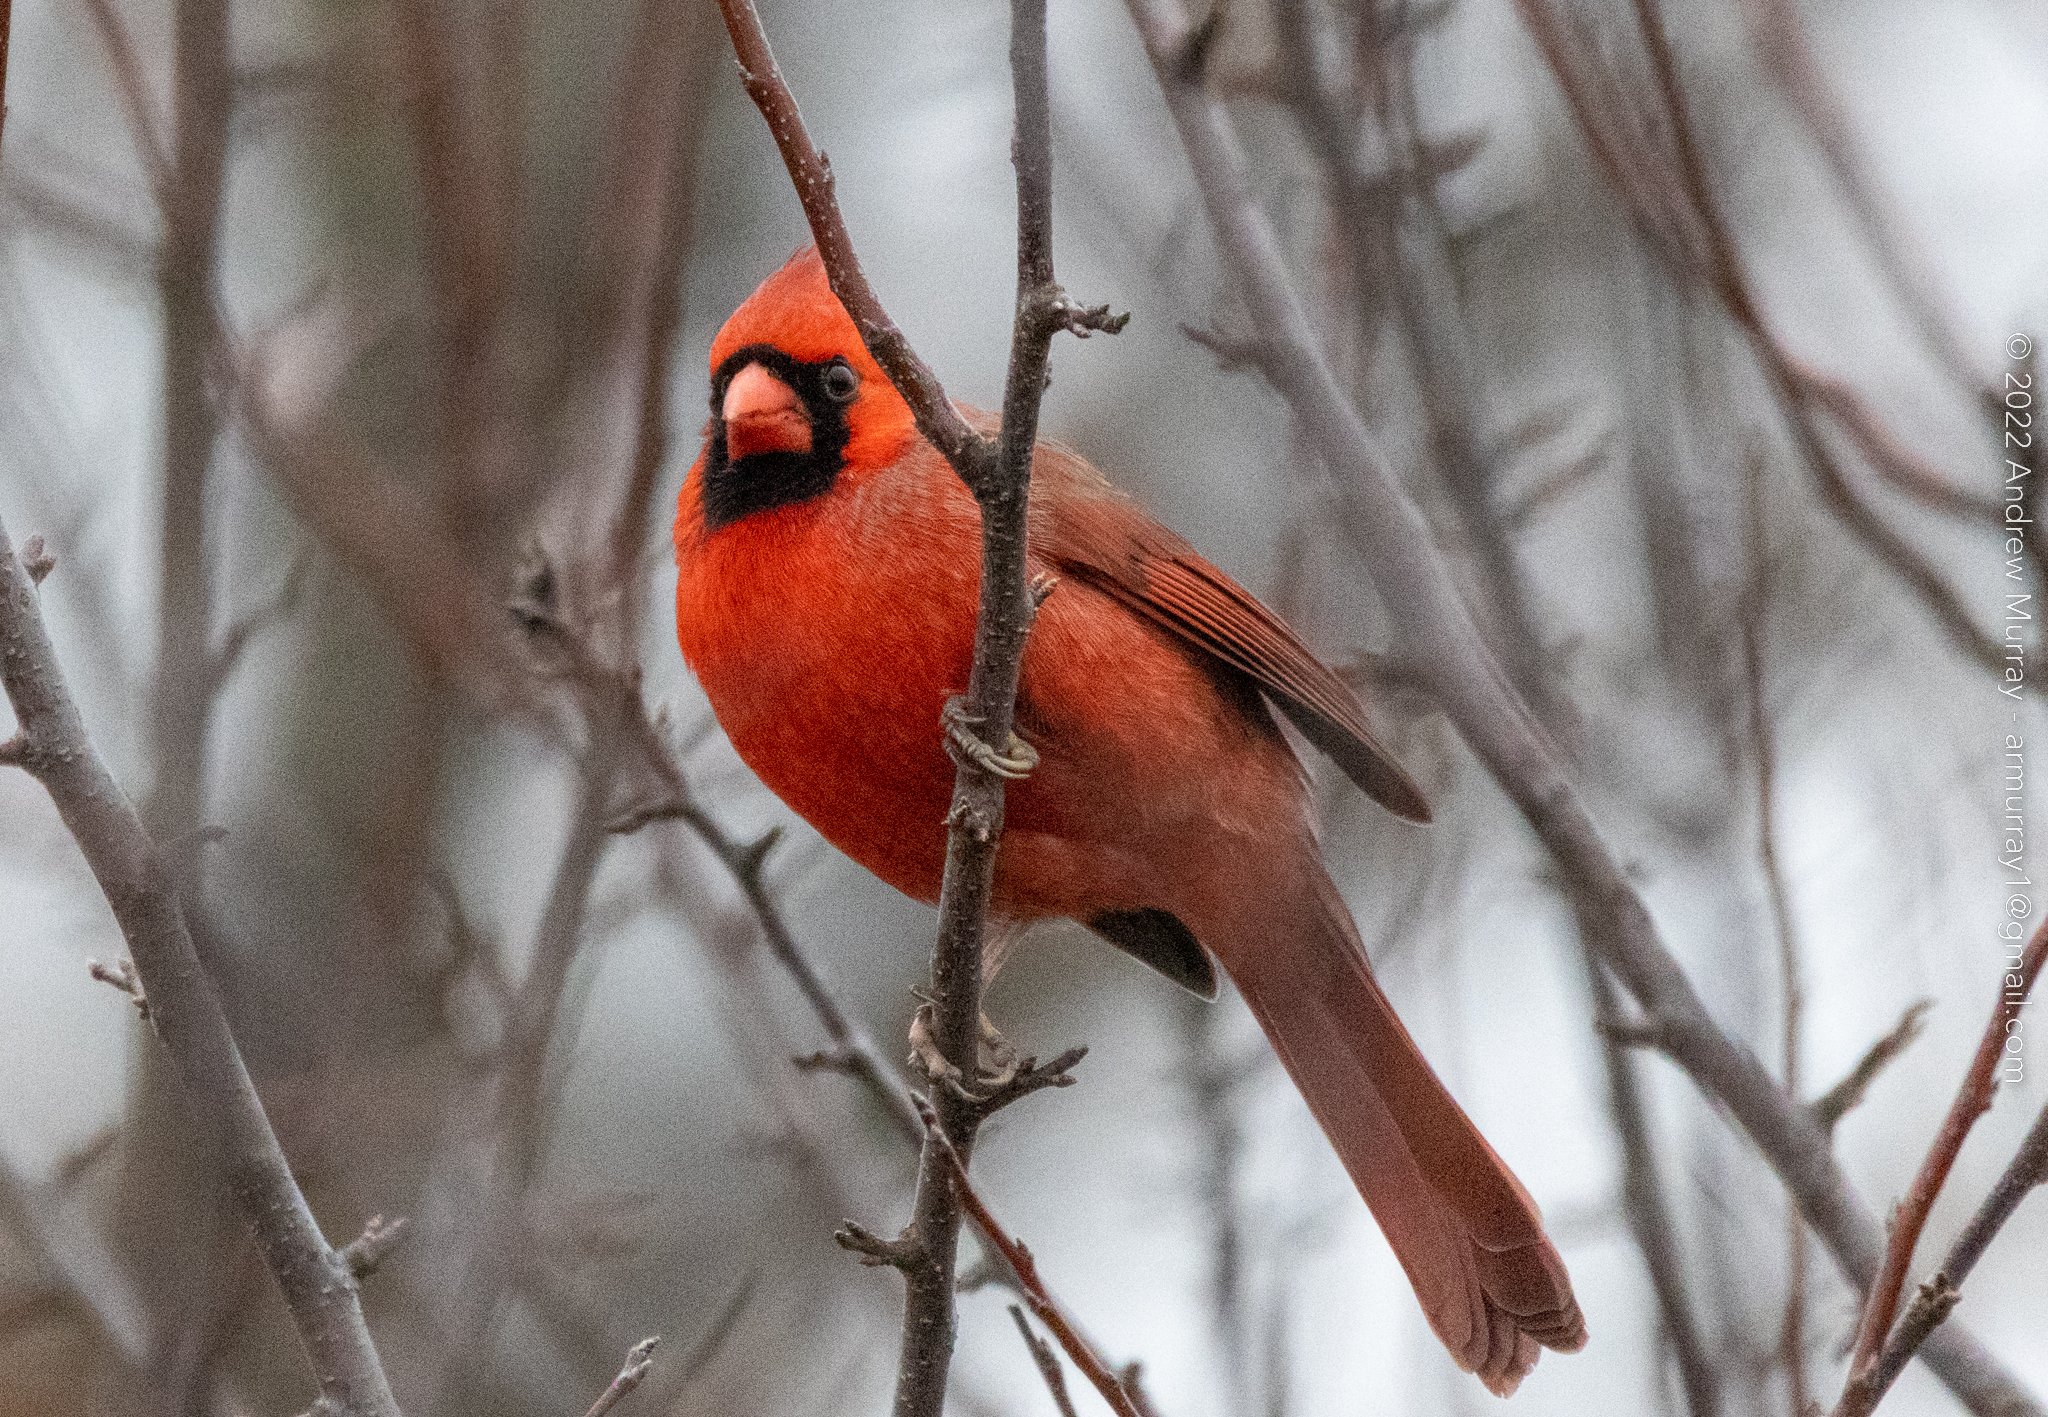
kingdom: Animalia
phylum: Chordata
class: Aves
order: Passeriformes
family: Cardinalidae
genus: Cardinalis
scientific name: Cardinalis cardinalis
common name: Northern cardinal
